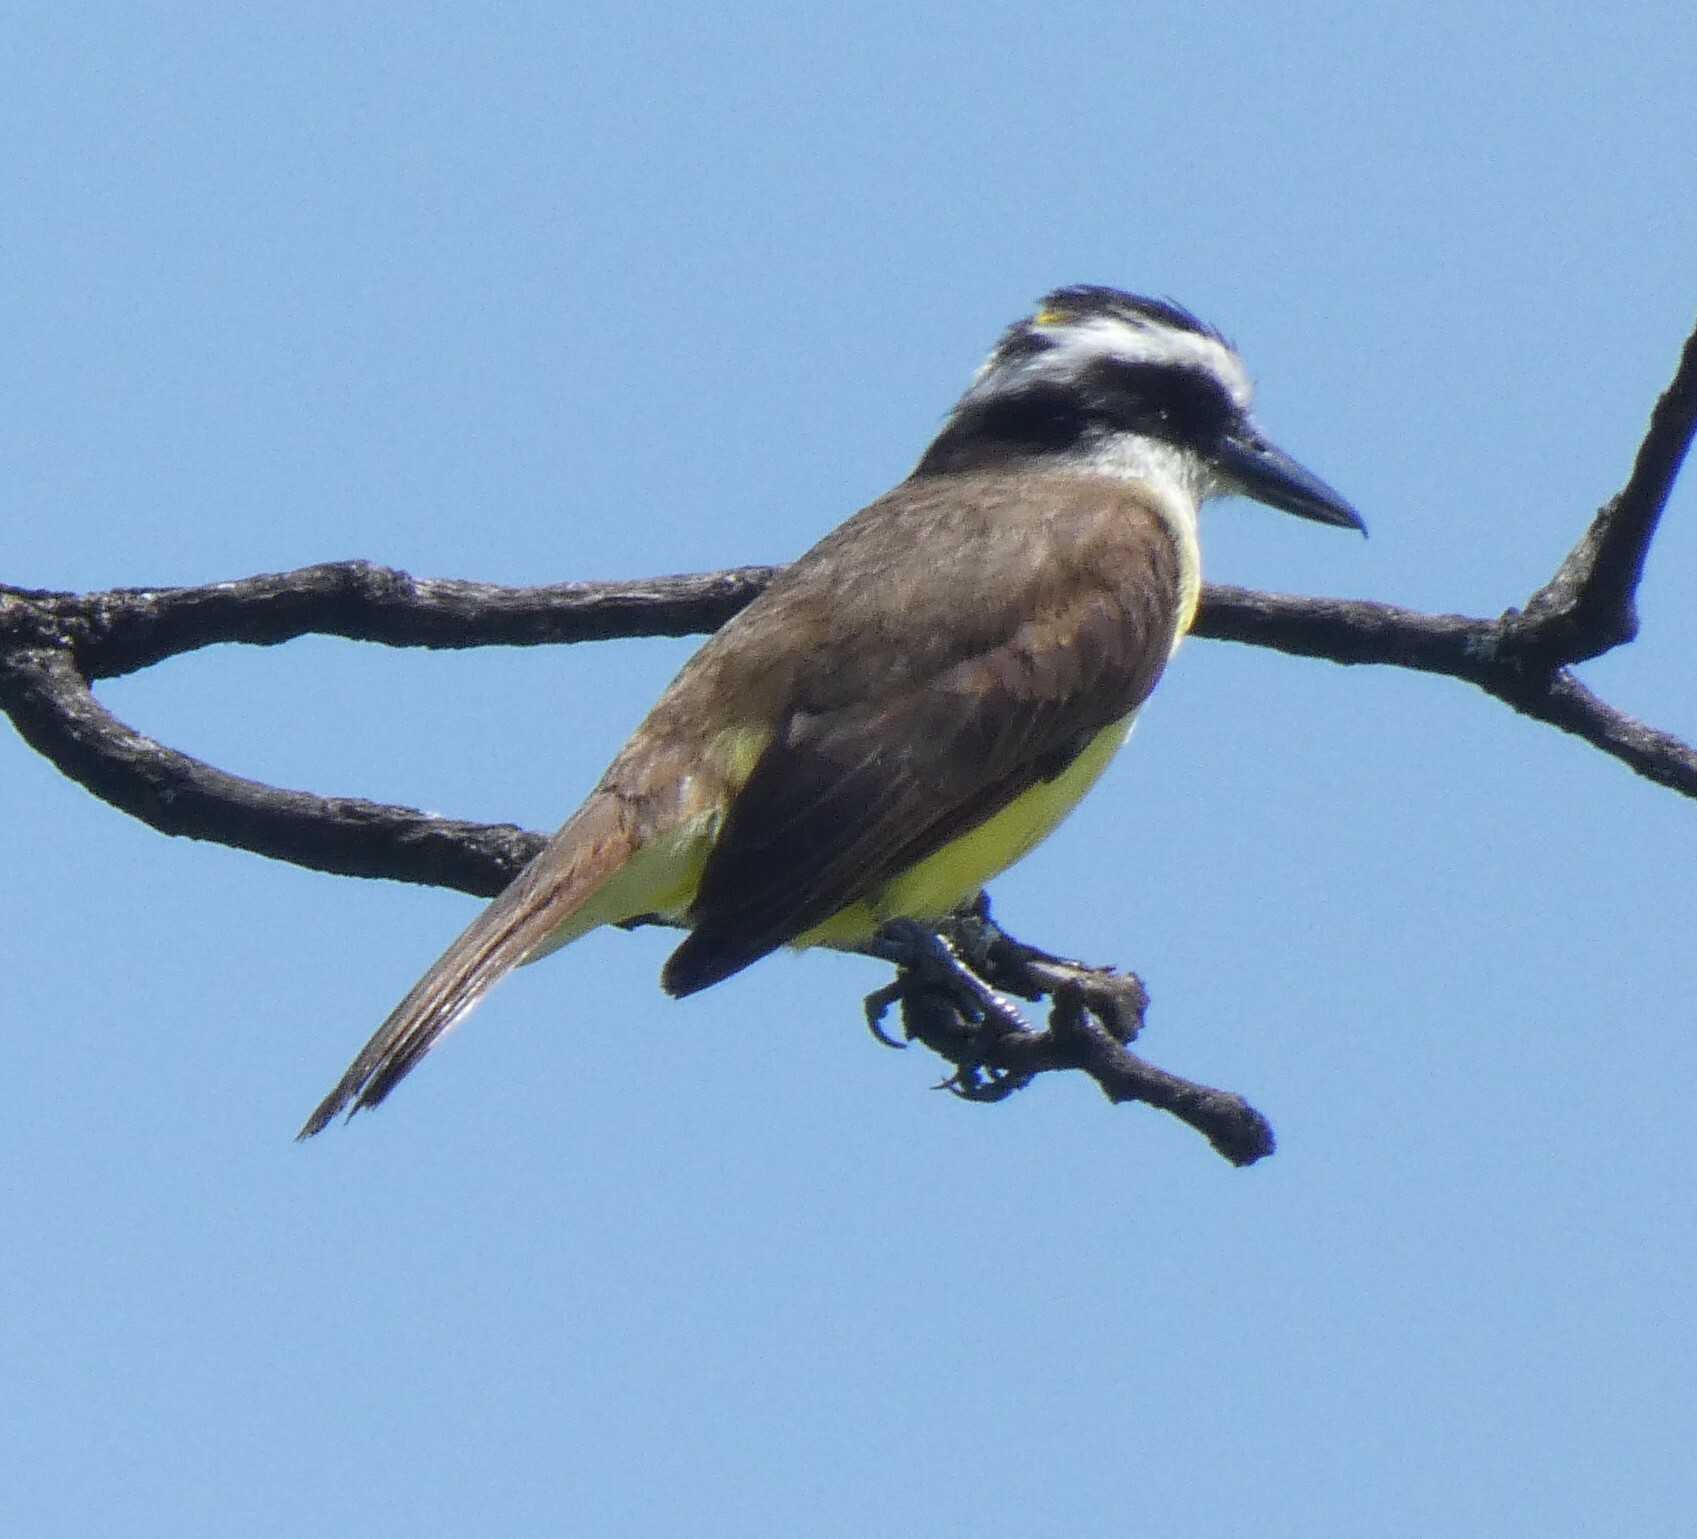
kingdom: Animalia
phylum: Chordata
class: Aves
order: Passeriformes
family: Tyrannidae
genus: Pitangus
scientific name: Pitangus sulphuratus
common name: Great kiskadee
